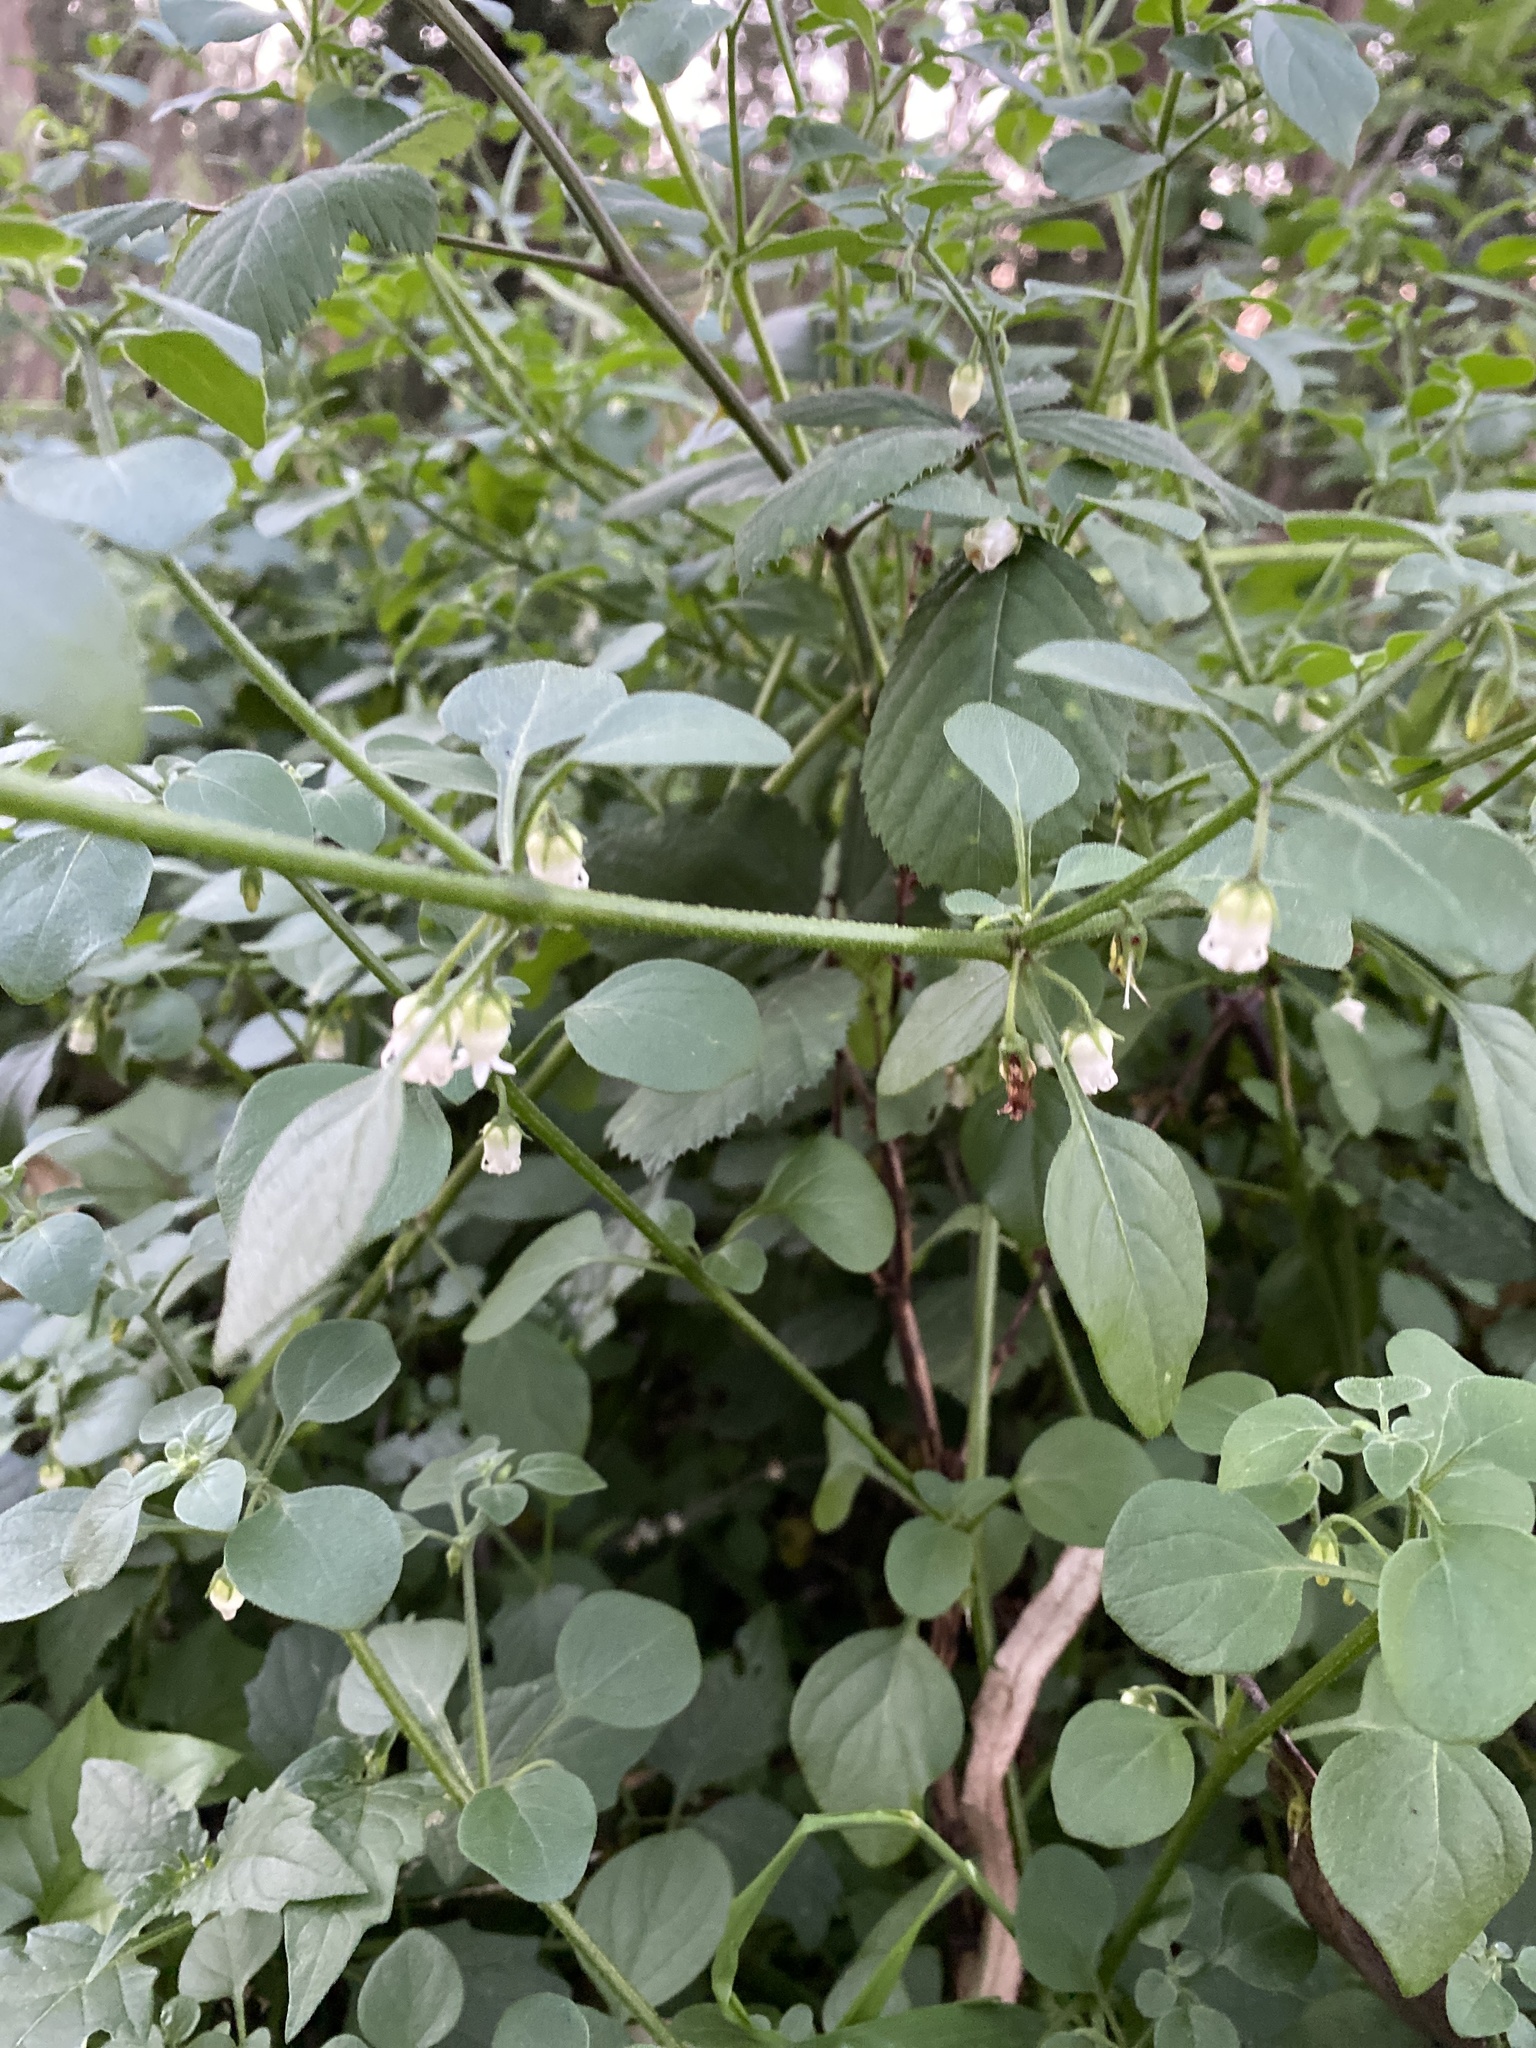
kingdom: Plantae
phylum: Tracheophyta
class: Magnoliopsida
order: Solanales
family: Solanaceae
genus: Salpichroa
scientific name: Salpichroa origanifolia
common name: Lily-of-the-valley-vine
